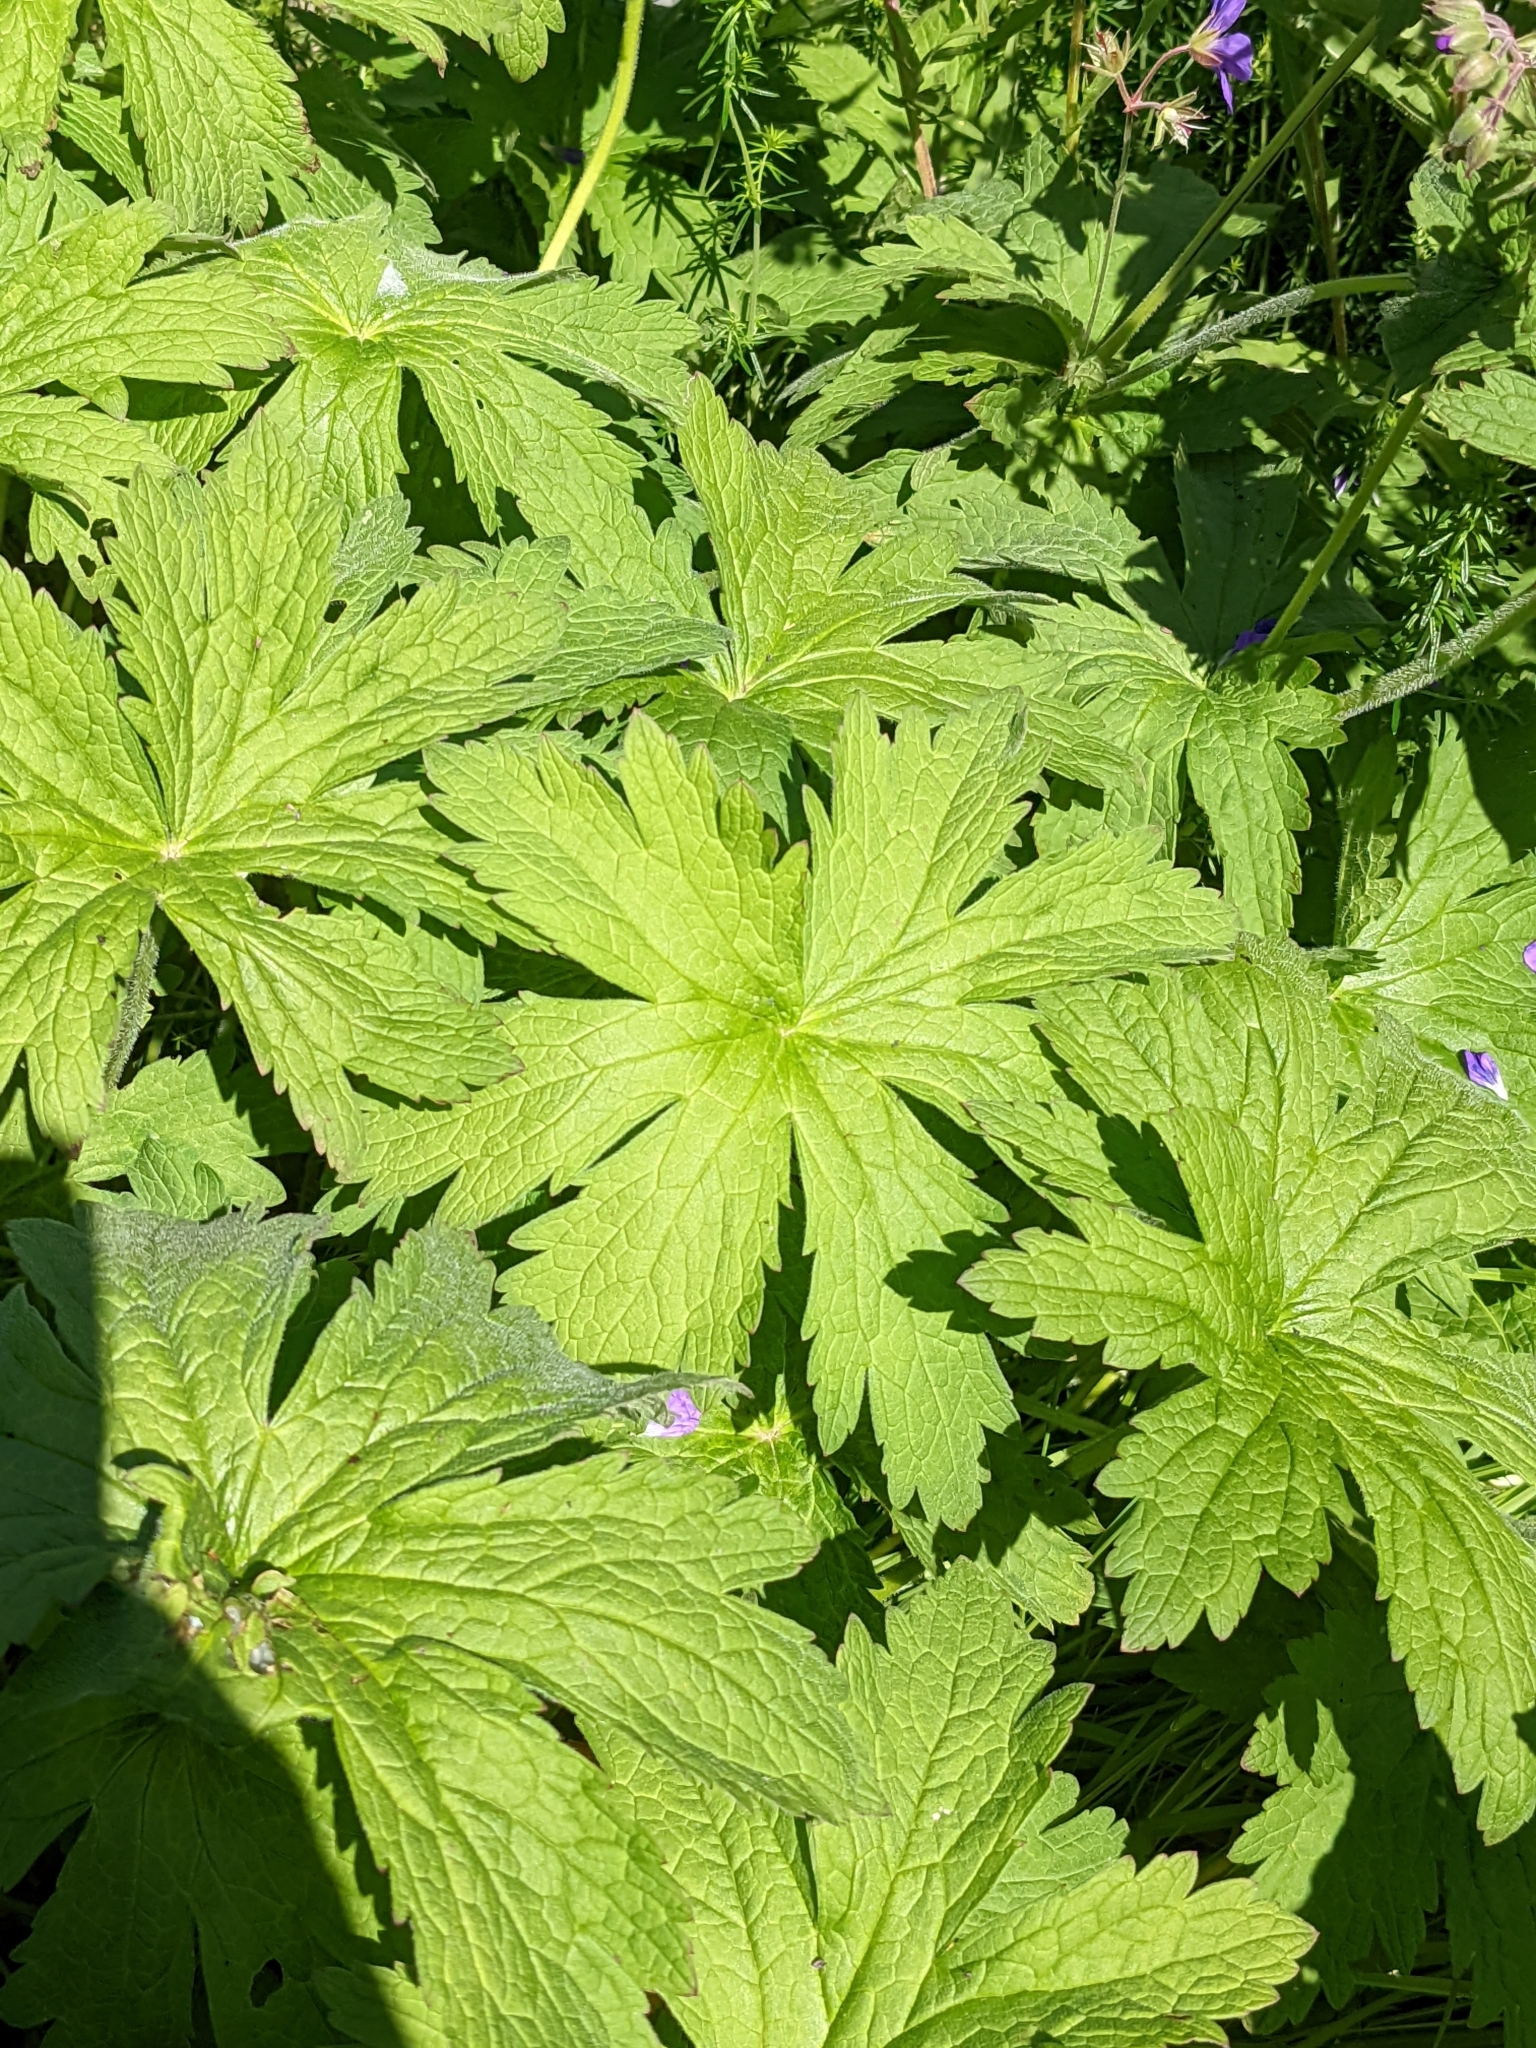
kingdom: Plantae
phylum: Tracheophyta
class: Magnoliopsida
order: Geraniales
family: Geraniaceae
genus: Geranium
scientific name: Geranium sylvaticum
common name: Wood crane's-bill
